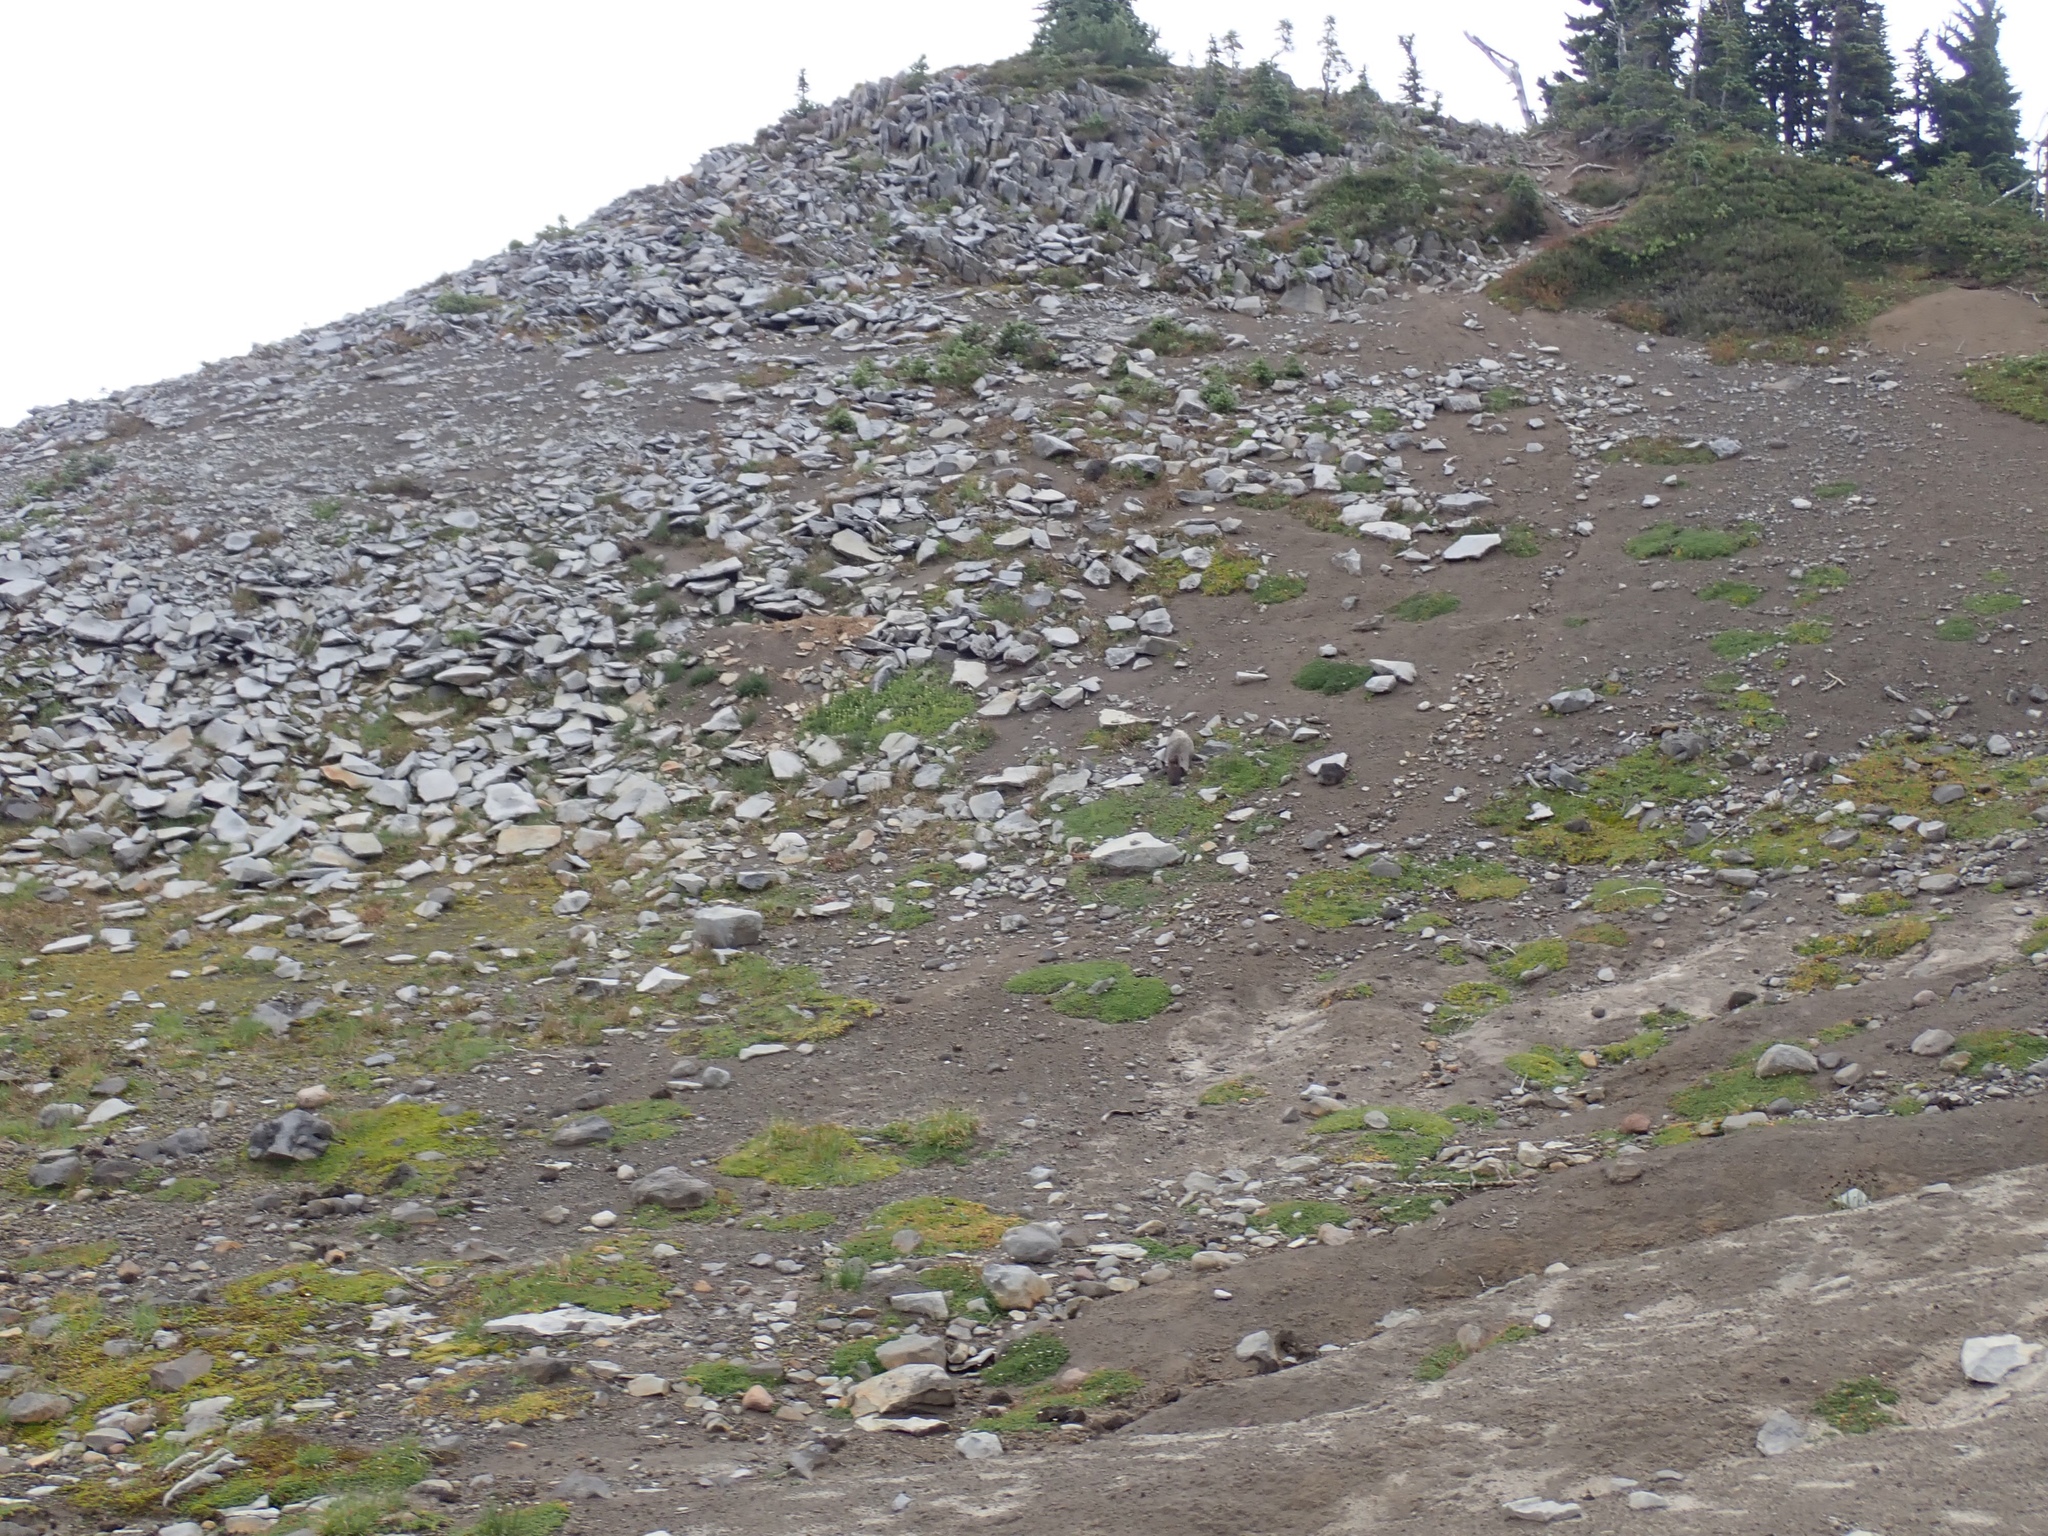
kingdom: Animalia
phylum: Chordata
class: Mammalia
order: Rodentia
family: Sciuridae
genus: Marmota
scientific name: Marmota caligata
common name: Hoary marmot
